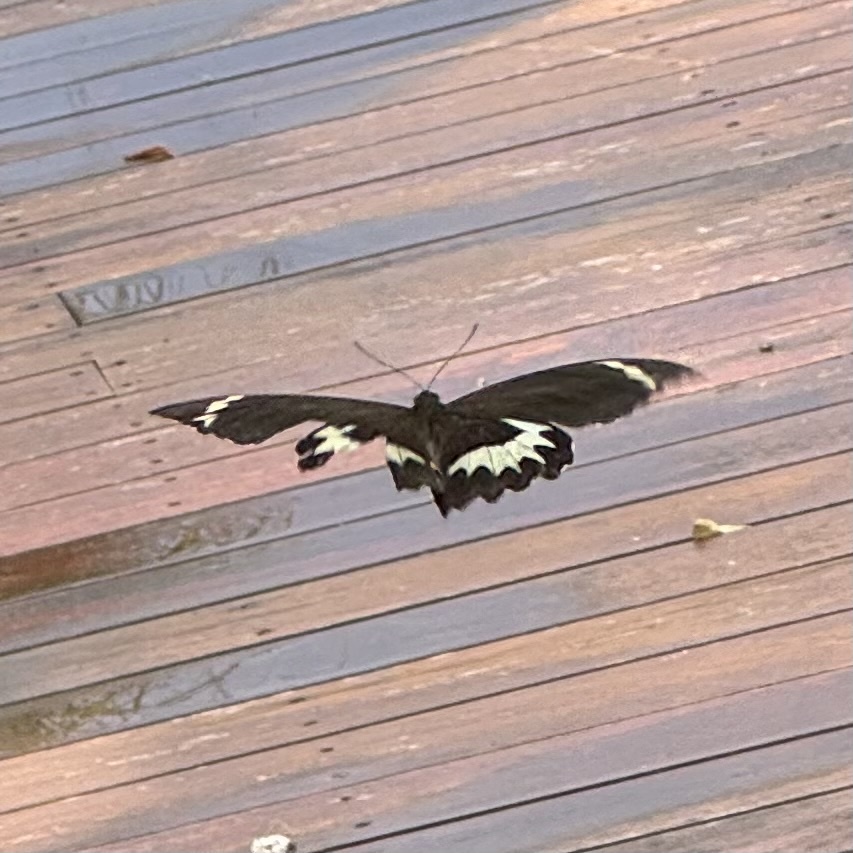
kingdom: Animalia
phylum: Arthropoda
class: Insecta
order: Lepidoptera
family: Papilionidae
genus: Papilio
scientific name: Papilio aegeus
